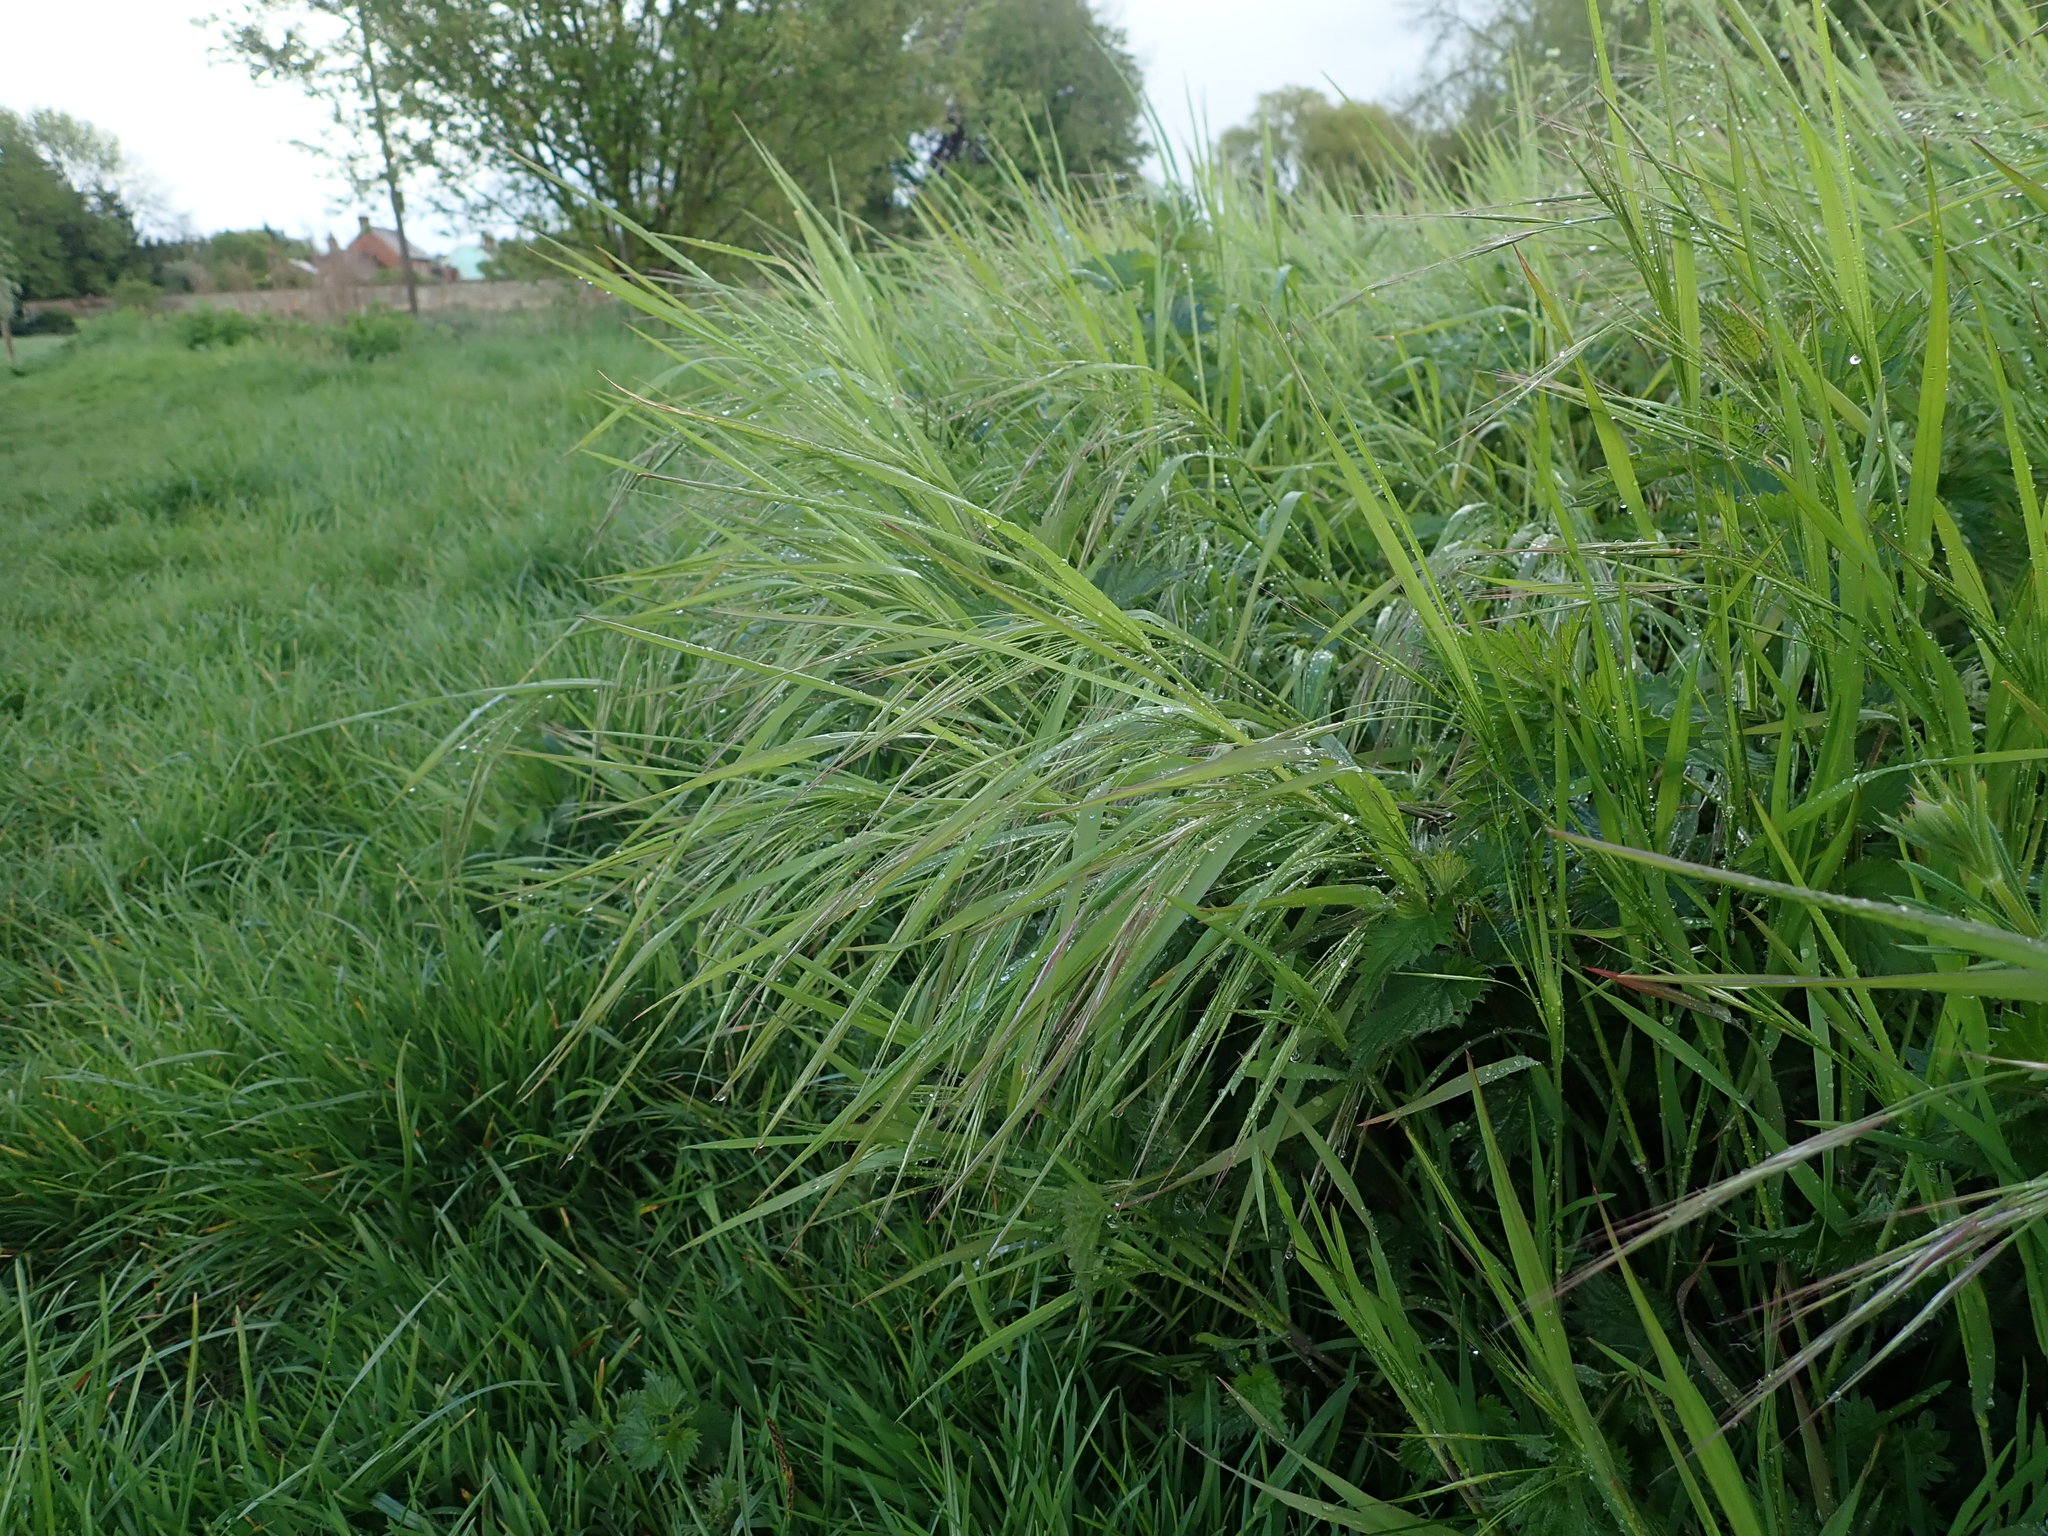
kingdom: Plantae
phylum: Tracheophyta
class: Liliopsida
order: Poales
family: Poaceae
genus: Bromus
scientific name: Bromus sterilis
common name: Poverty brome
